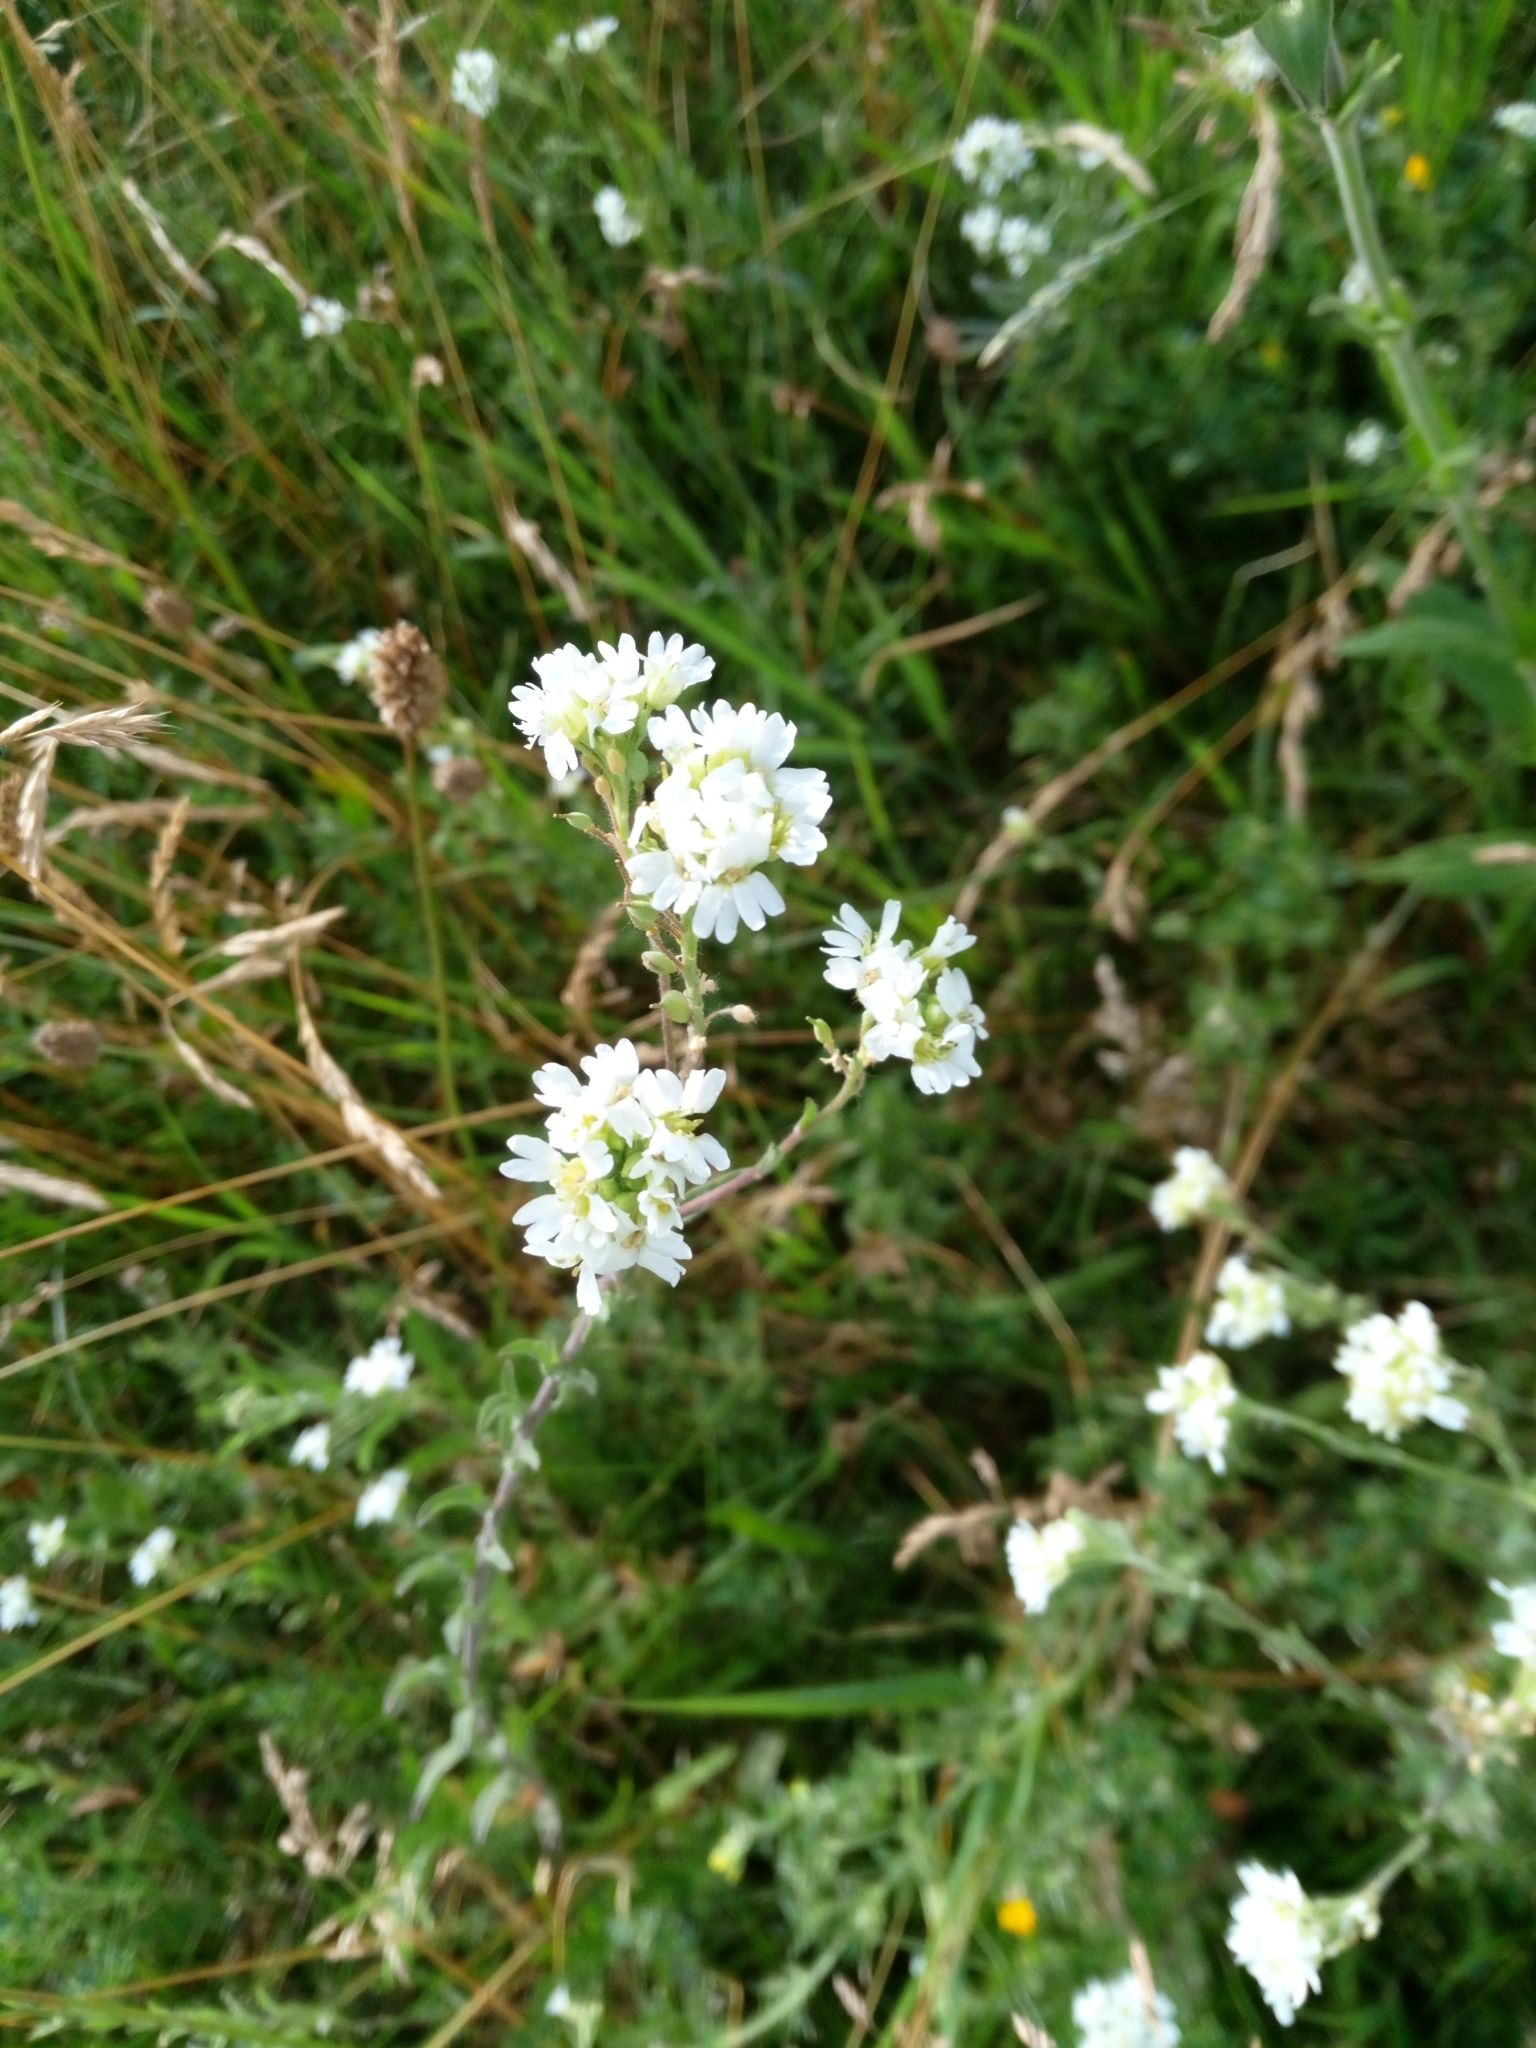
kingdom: Plantae
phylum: Tracheophyta
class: Magnoliopsida
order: Brassicales
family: Brassicaceae
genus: Berteroa
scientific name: Berteroa incana
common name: Hoary alison
